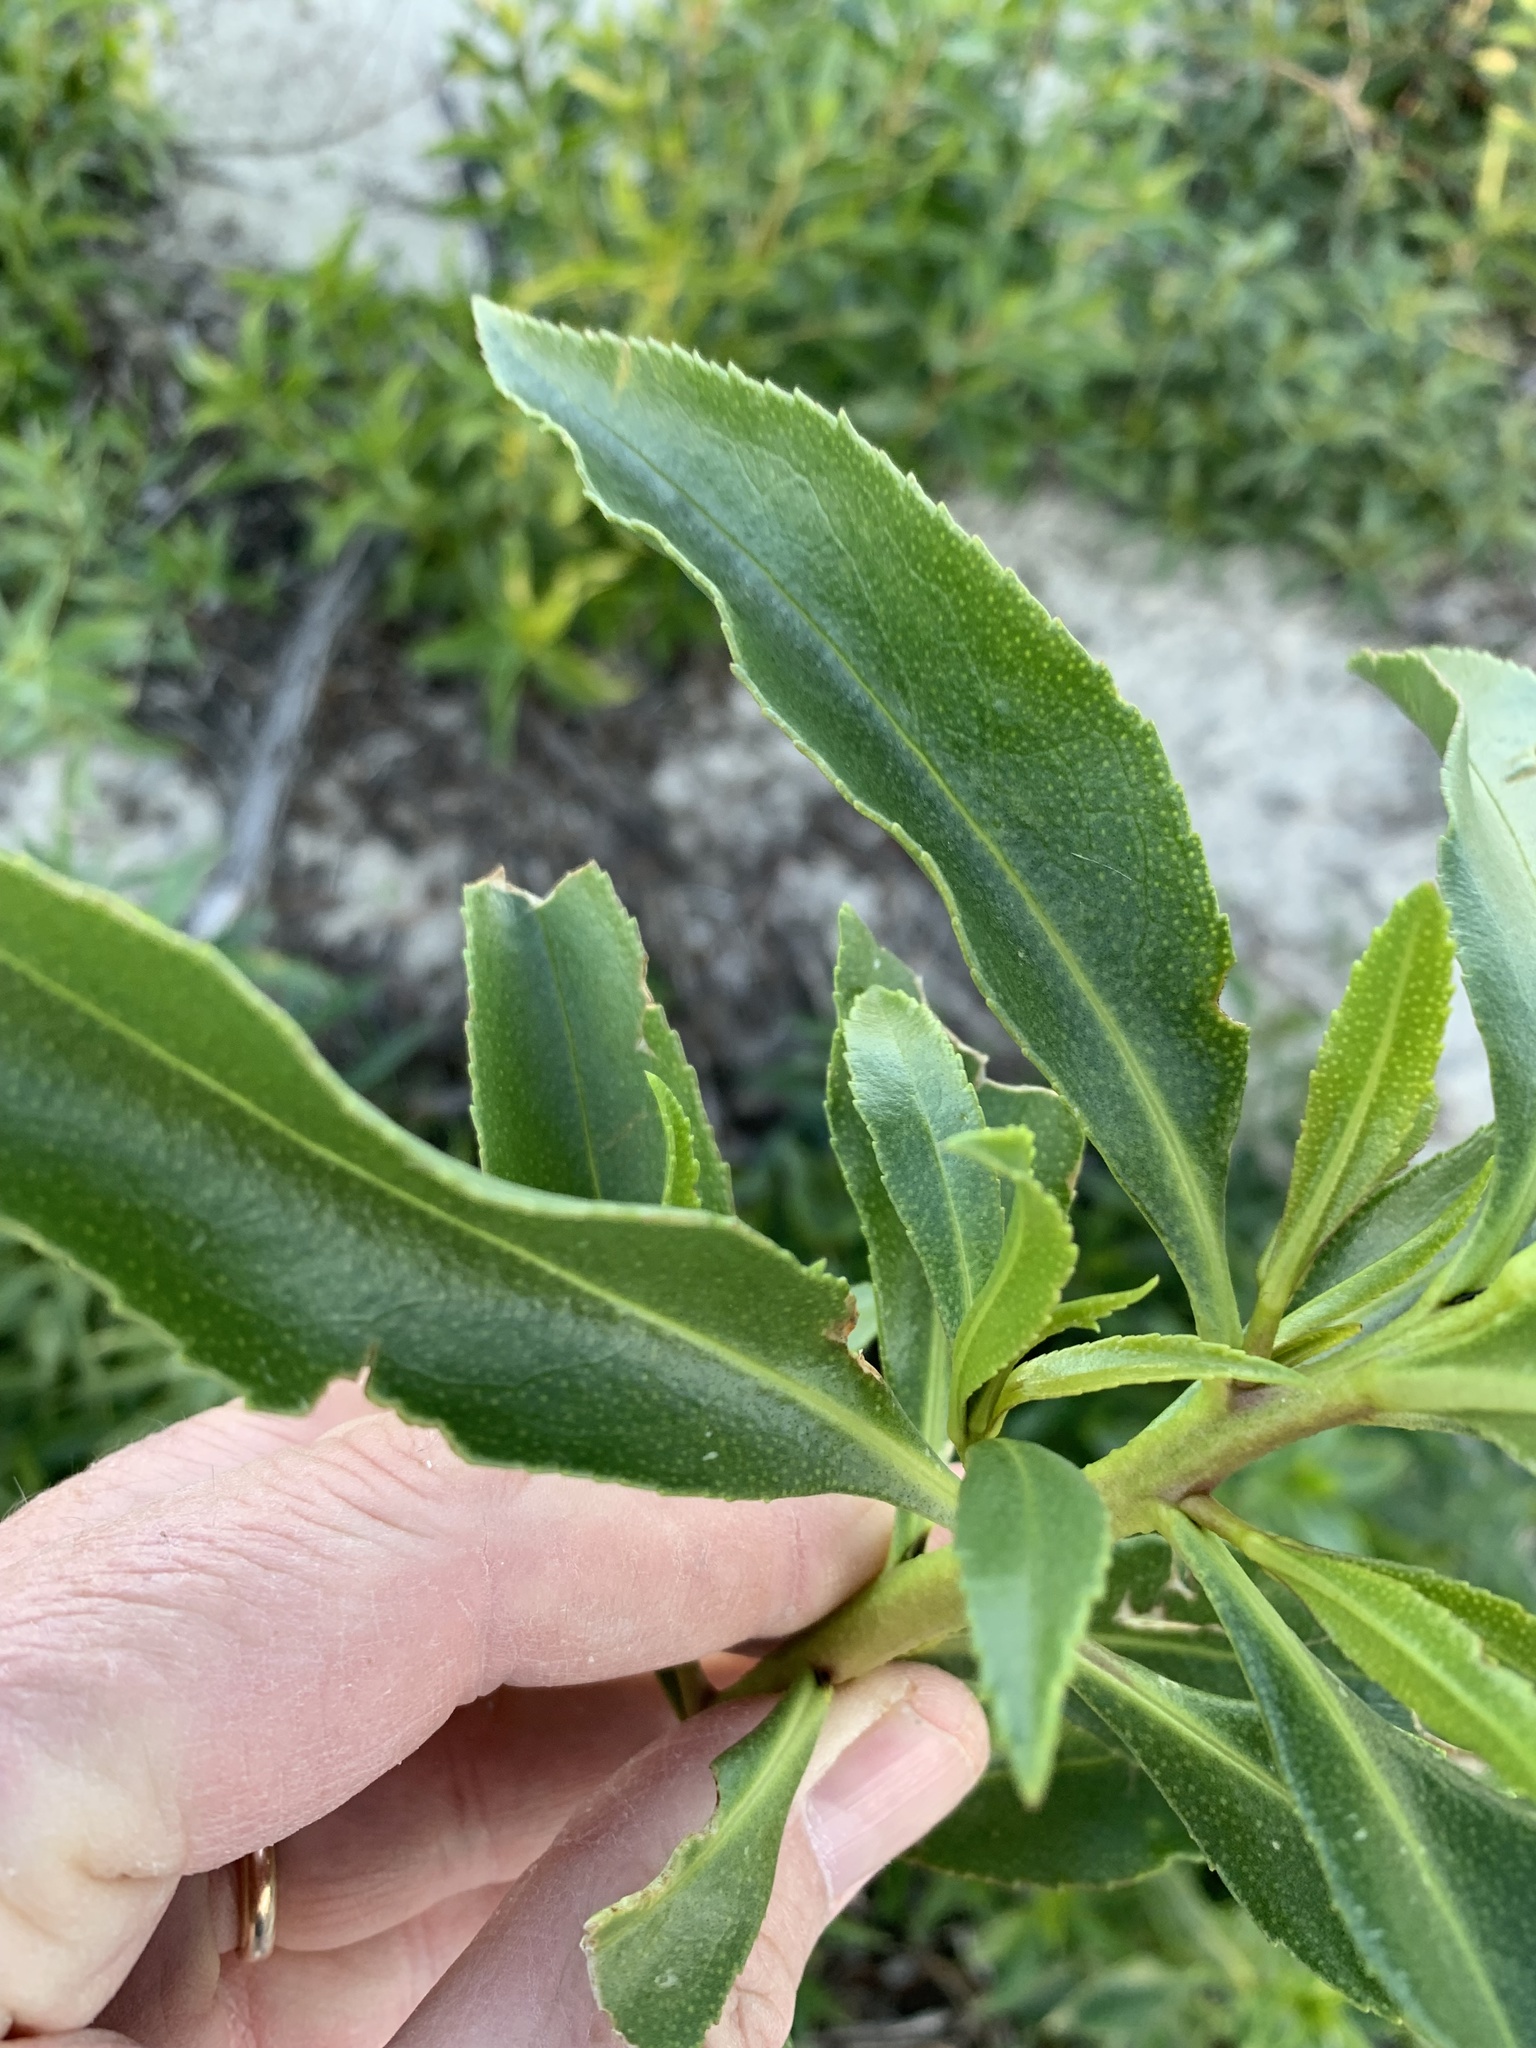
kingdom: Plantae
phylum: Tracheophyta
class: Magnoliopsida
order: Lamiales
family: Scrophulariaceae
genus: Myoporum
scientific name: Myoporum laetum
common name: Ngaio tree
